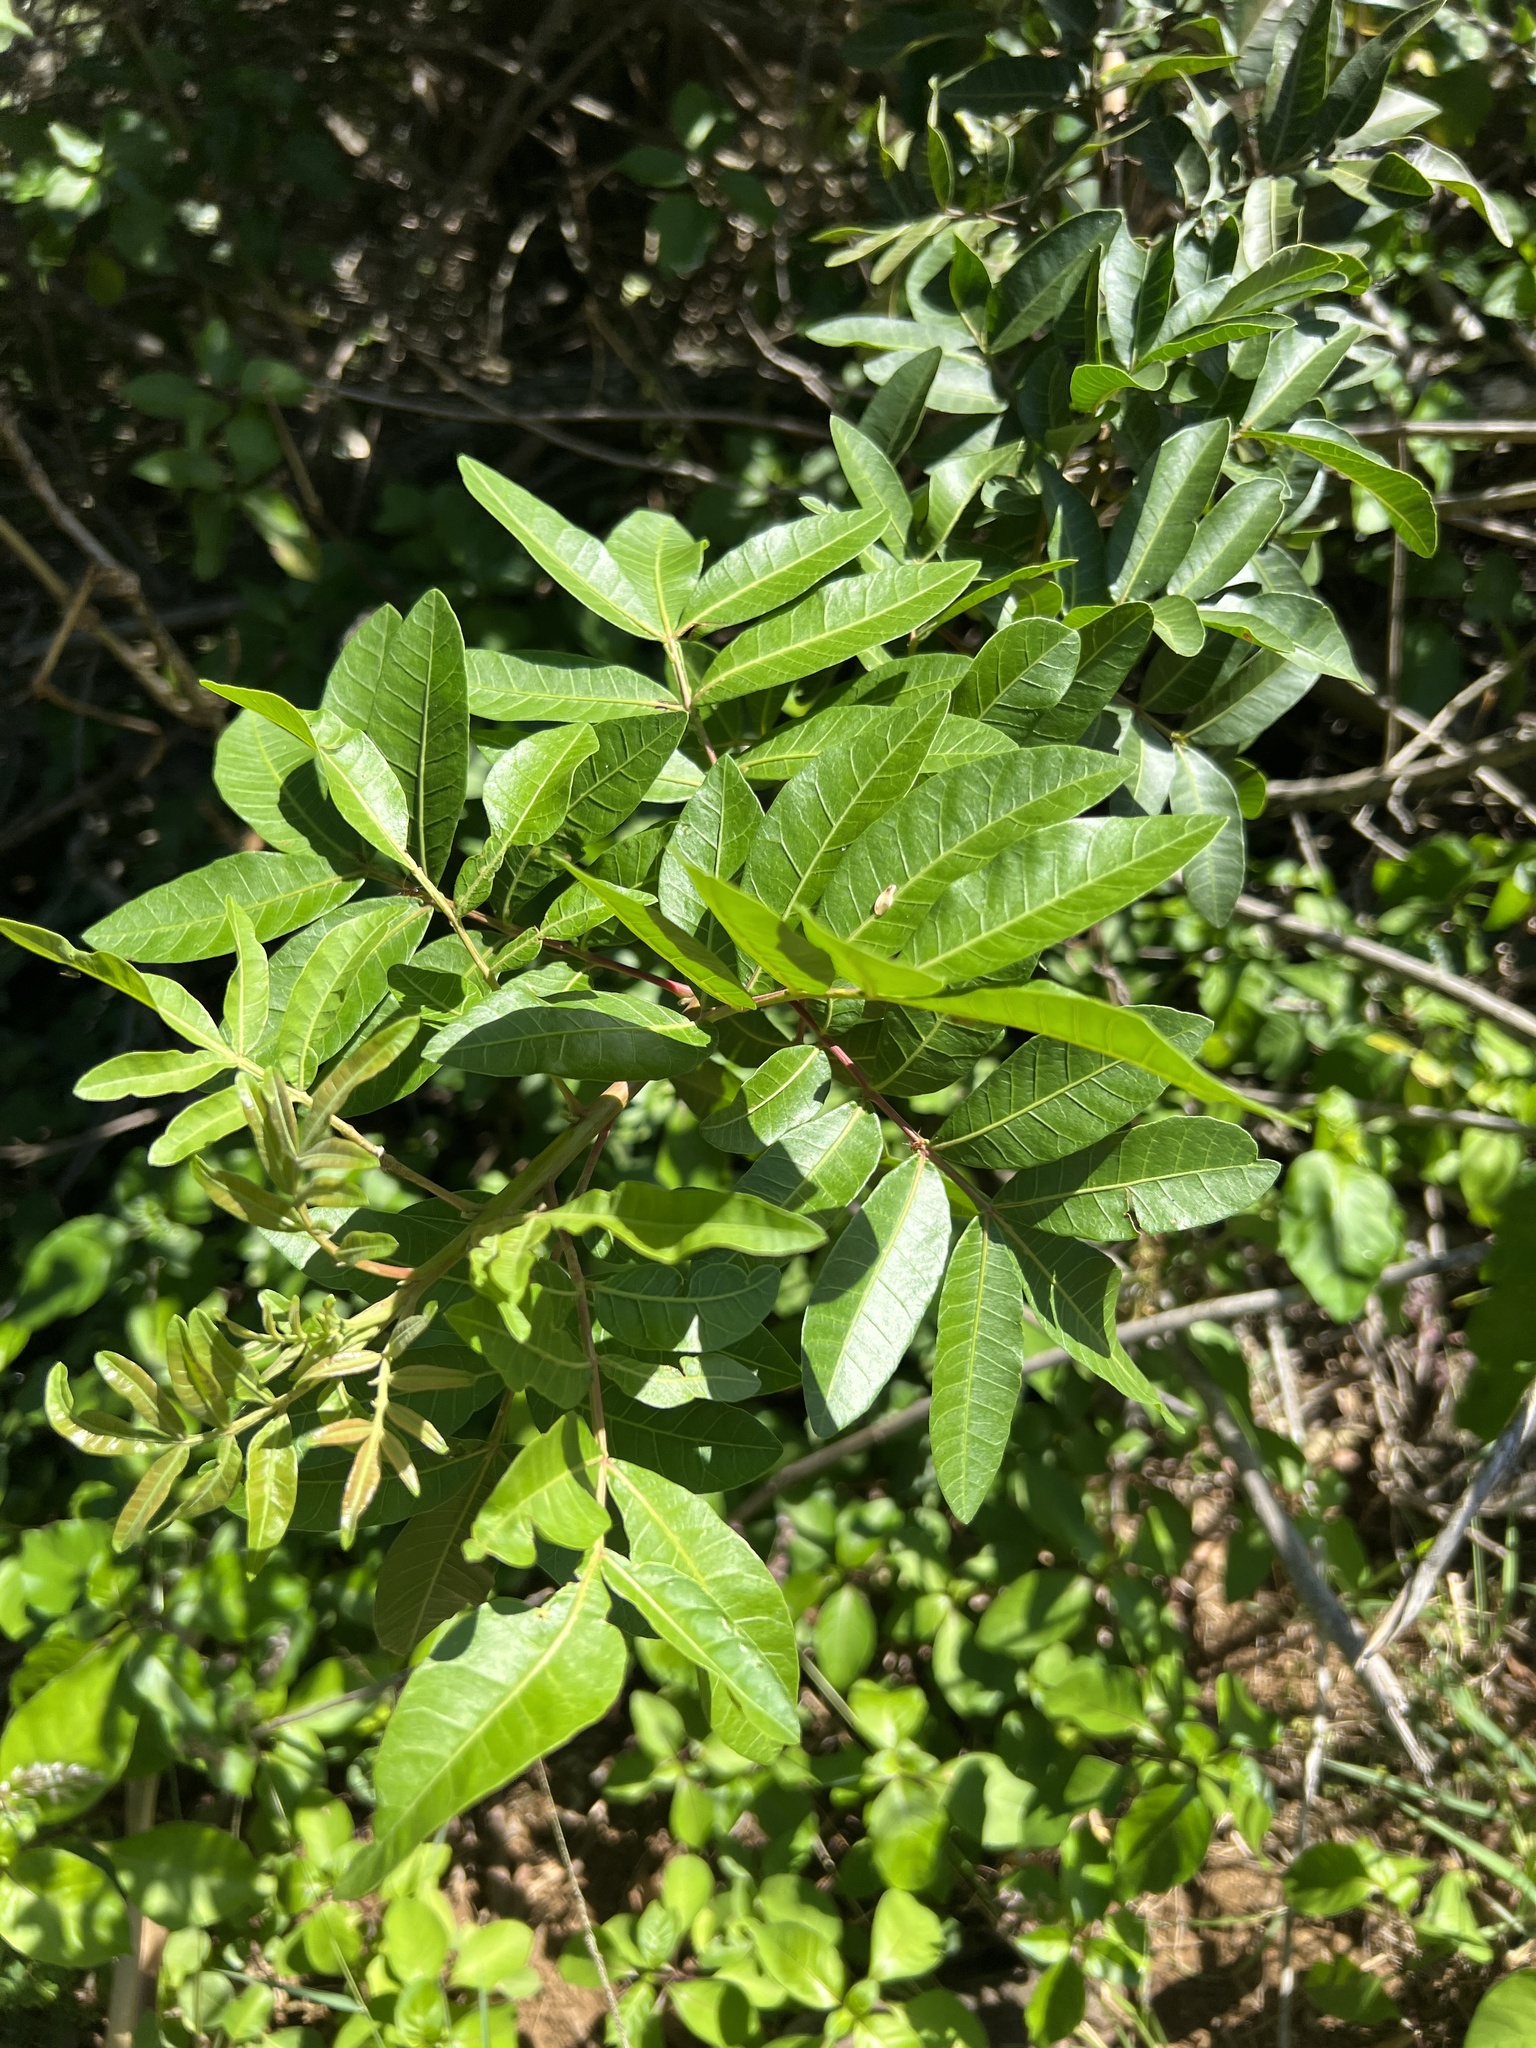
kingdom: Plantae
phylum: Tracheophyta
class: Magnoliopsida
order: Sapindales
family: Anacardiaceae
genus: Schinus
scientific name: Schinus terebinthifolia
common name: Brazilian peppertree
